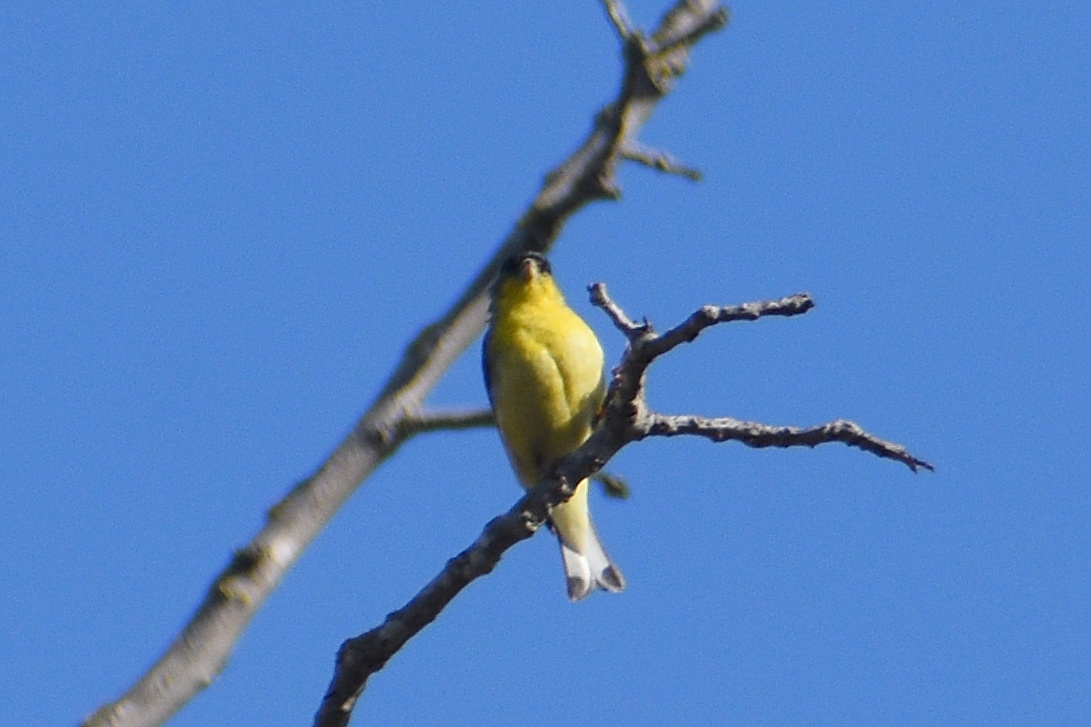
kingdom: Animalia
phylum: Chordata
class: Aves
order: Passeriformes
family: Fringillidae
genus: Spinus
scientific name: Spinus psaltria
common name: Lesser goldfinch
